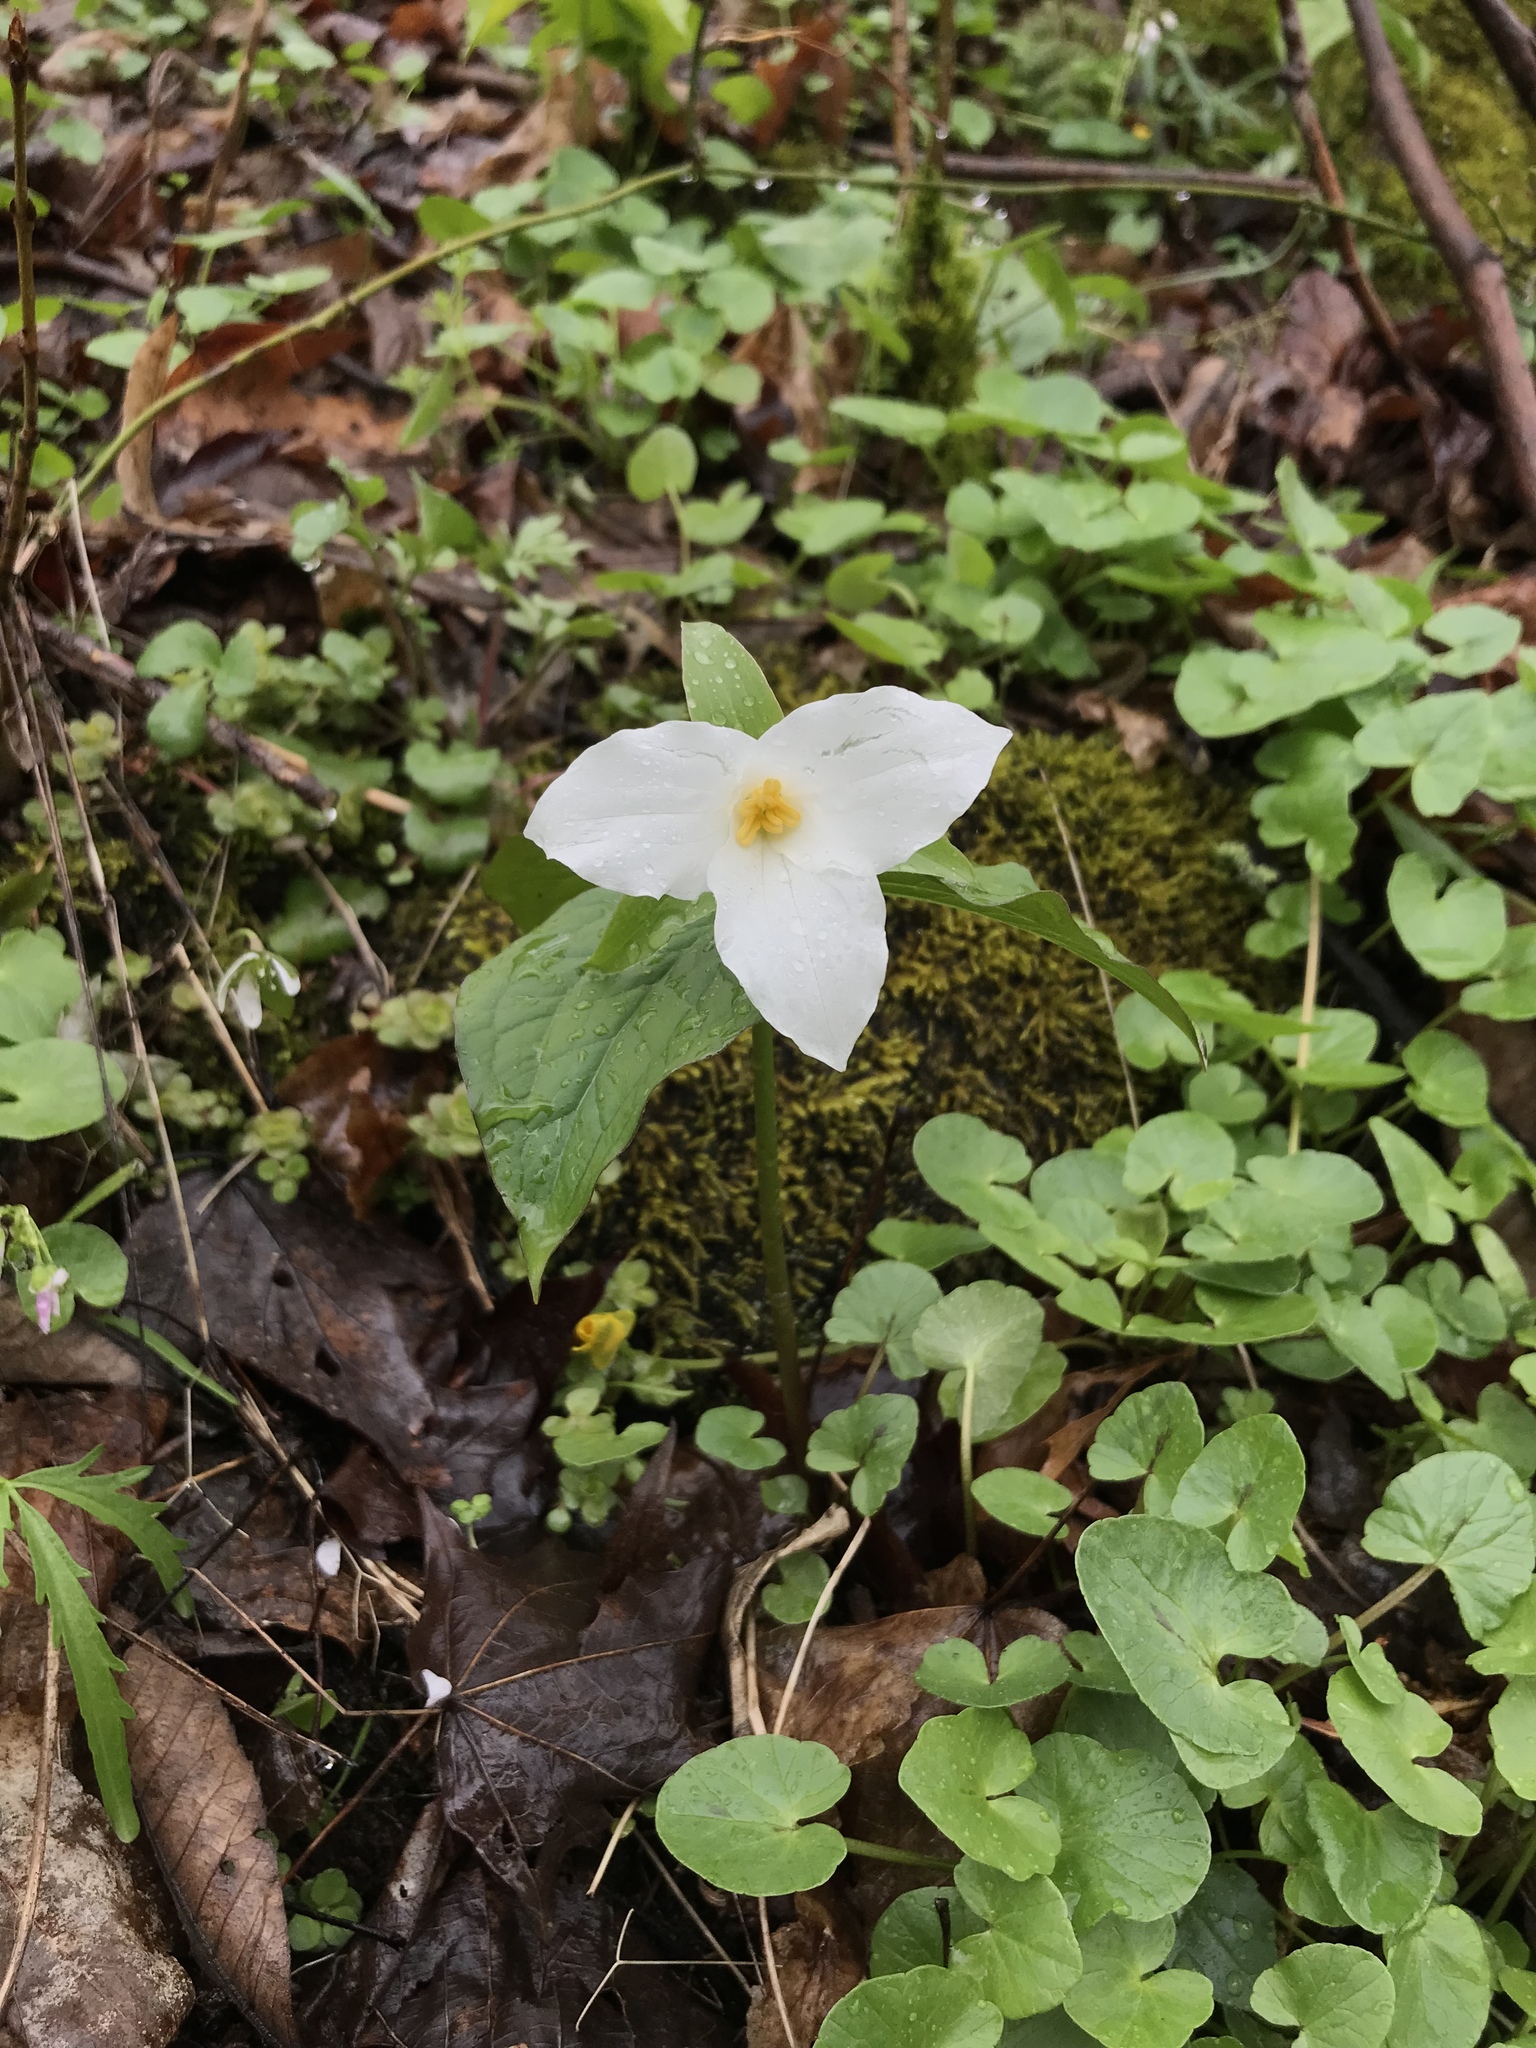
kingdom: Plantae
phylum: Tracheophyta
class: Liliopsida
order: Liliales
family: Melanthiaceae
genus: Trillium
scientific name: Trillium grandiflorum
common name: Great white trillium
